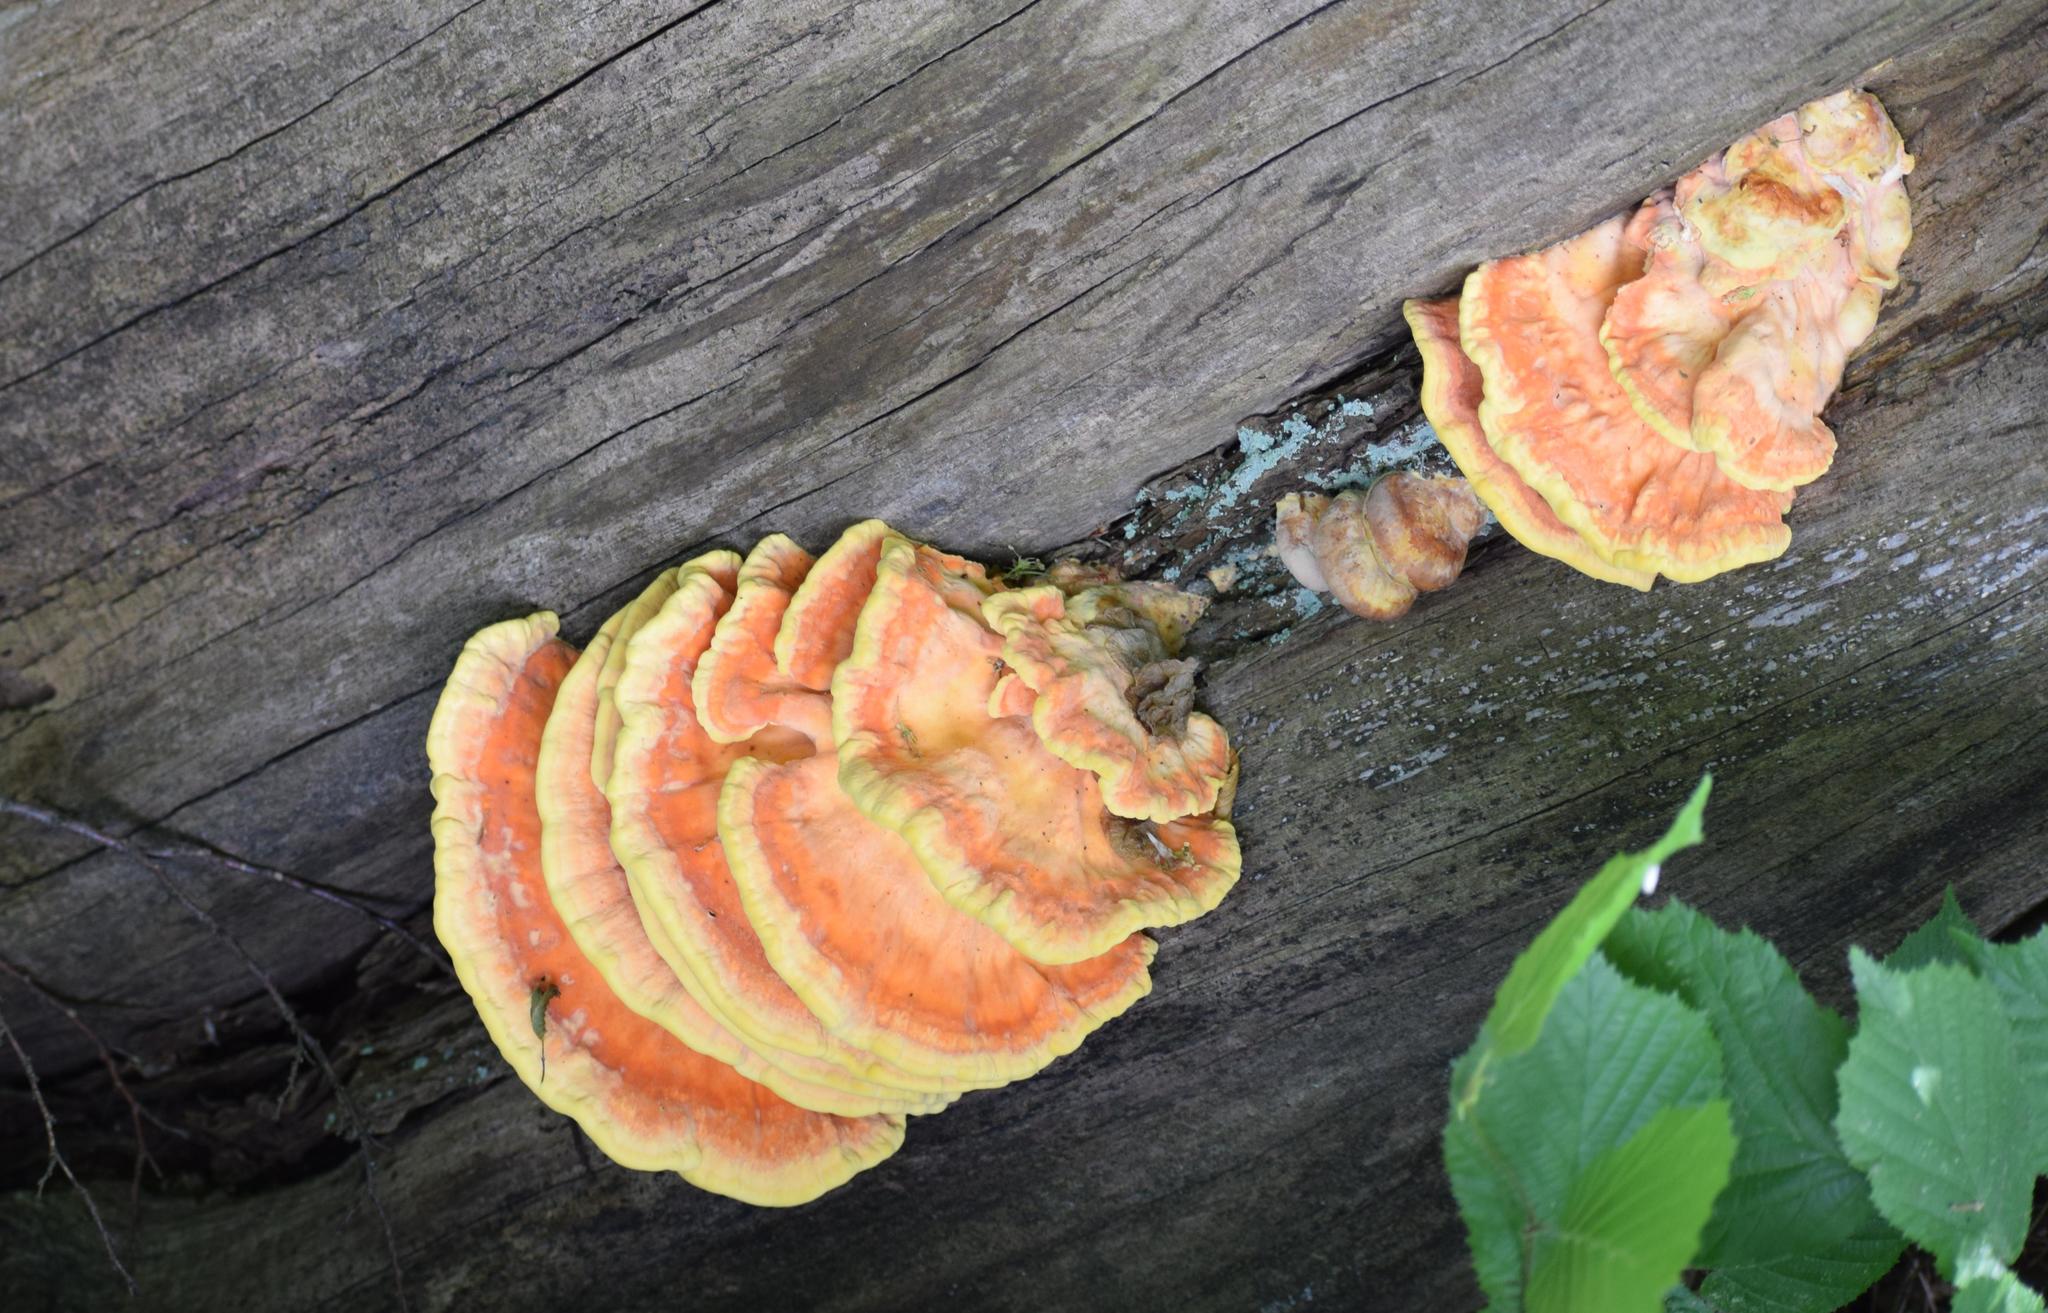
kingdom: Fungi
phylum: Basidiomycota
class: Agaricomycetes
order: Polyporales
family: Laetiporaceae
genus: Laetiporus
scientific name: Laetiporus sulphureus
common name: Chicken of the woods
